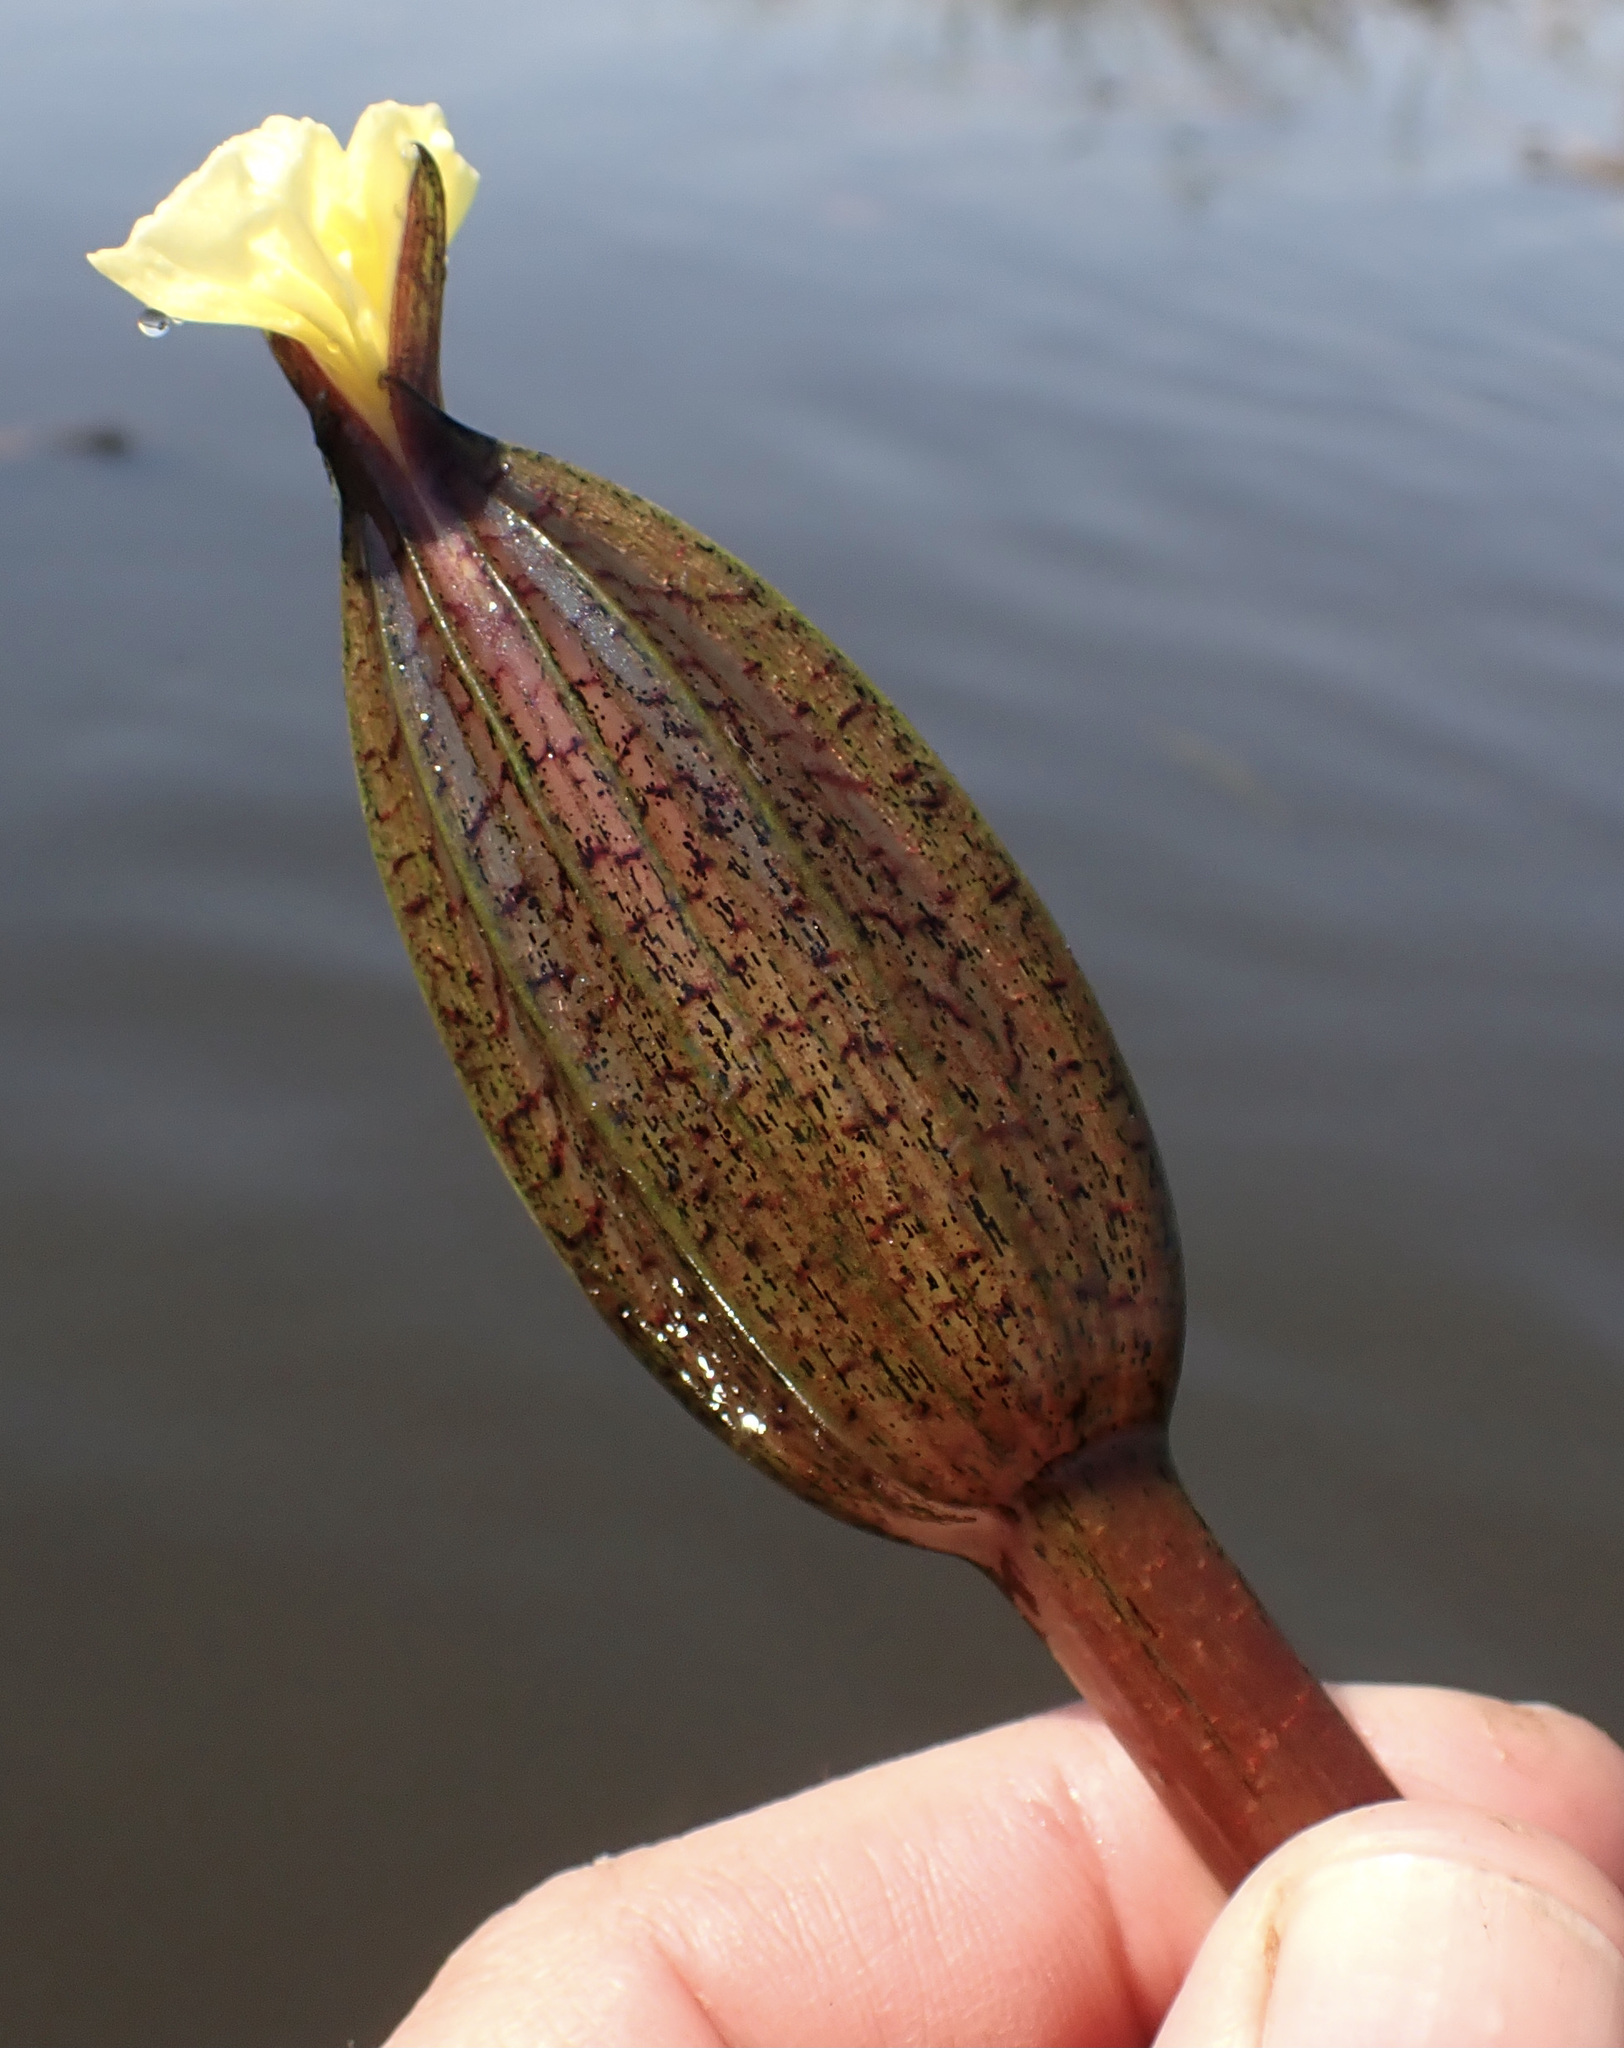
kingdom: Plantae
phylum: Tracheophyta
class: Liliopsida
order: Alismatales
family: Hydrocharitaceae
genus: Ottelia
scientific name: Ottelia ulvifolia
